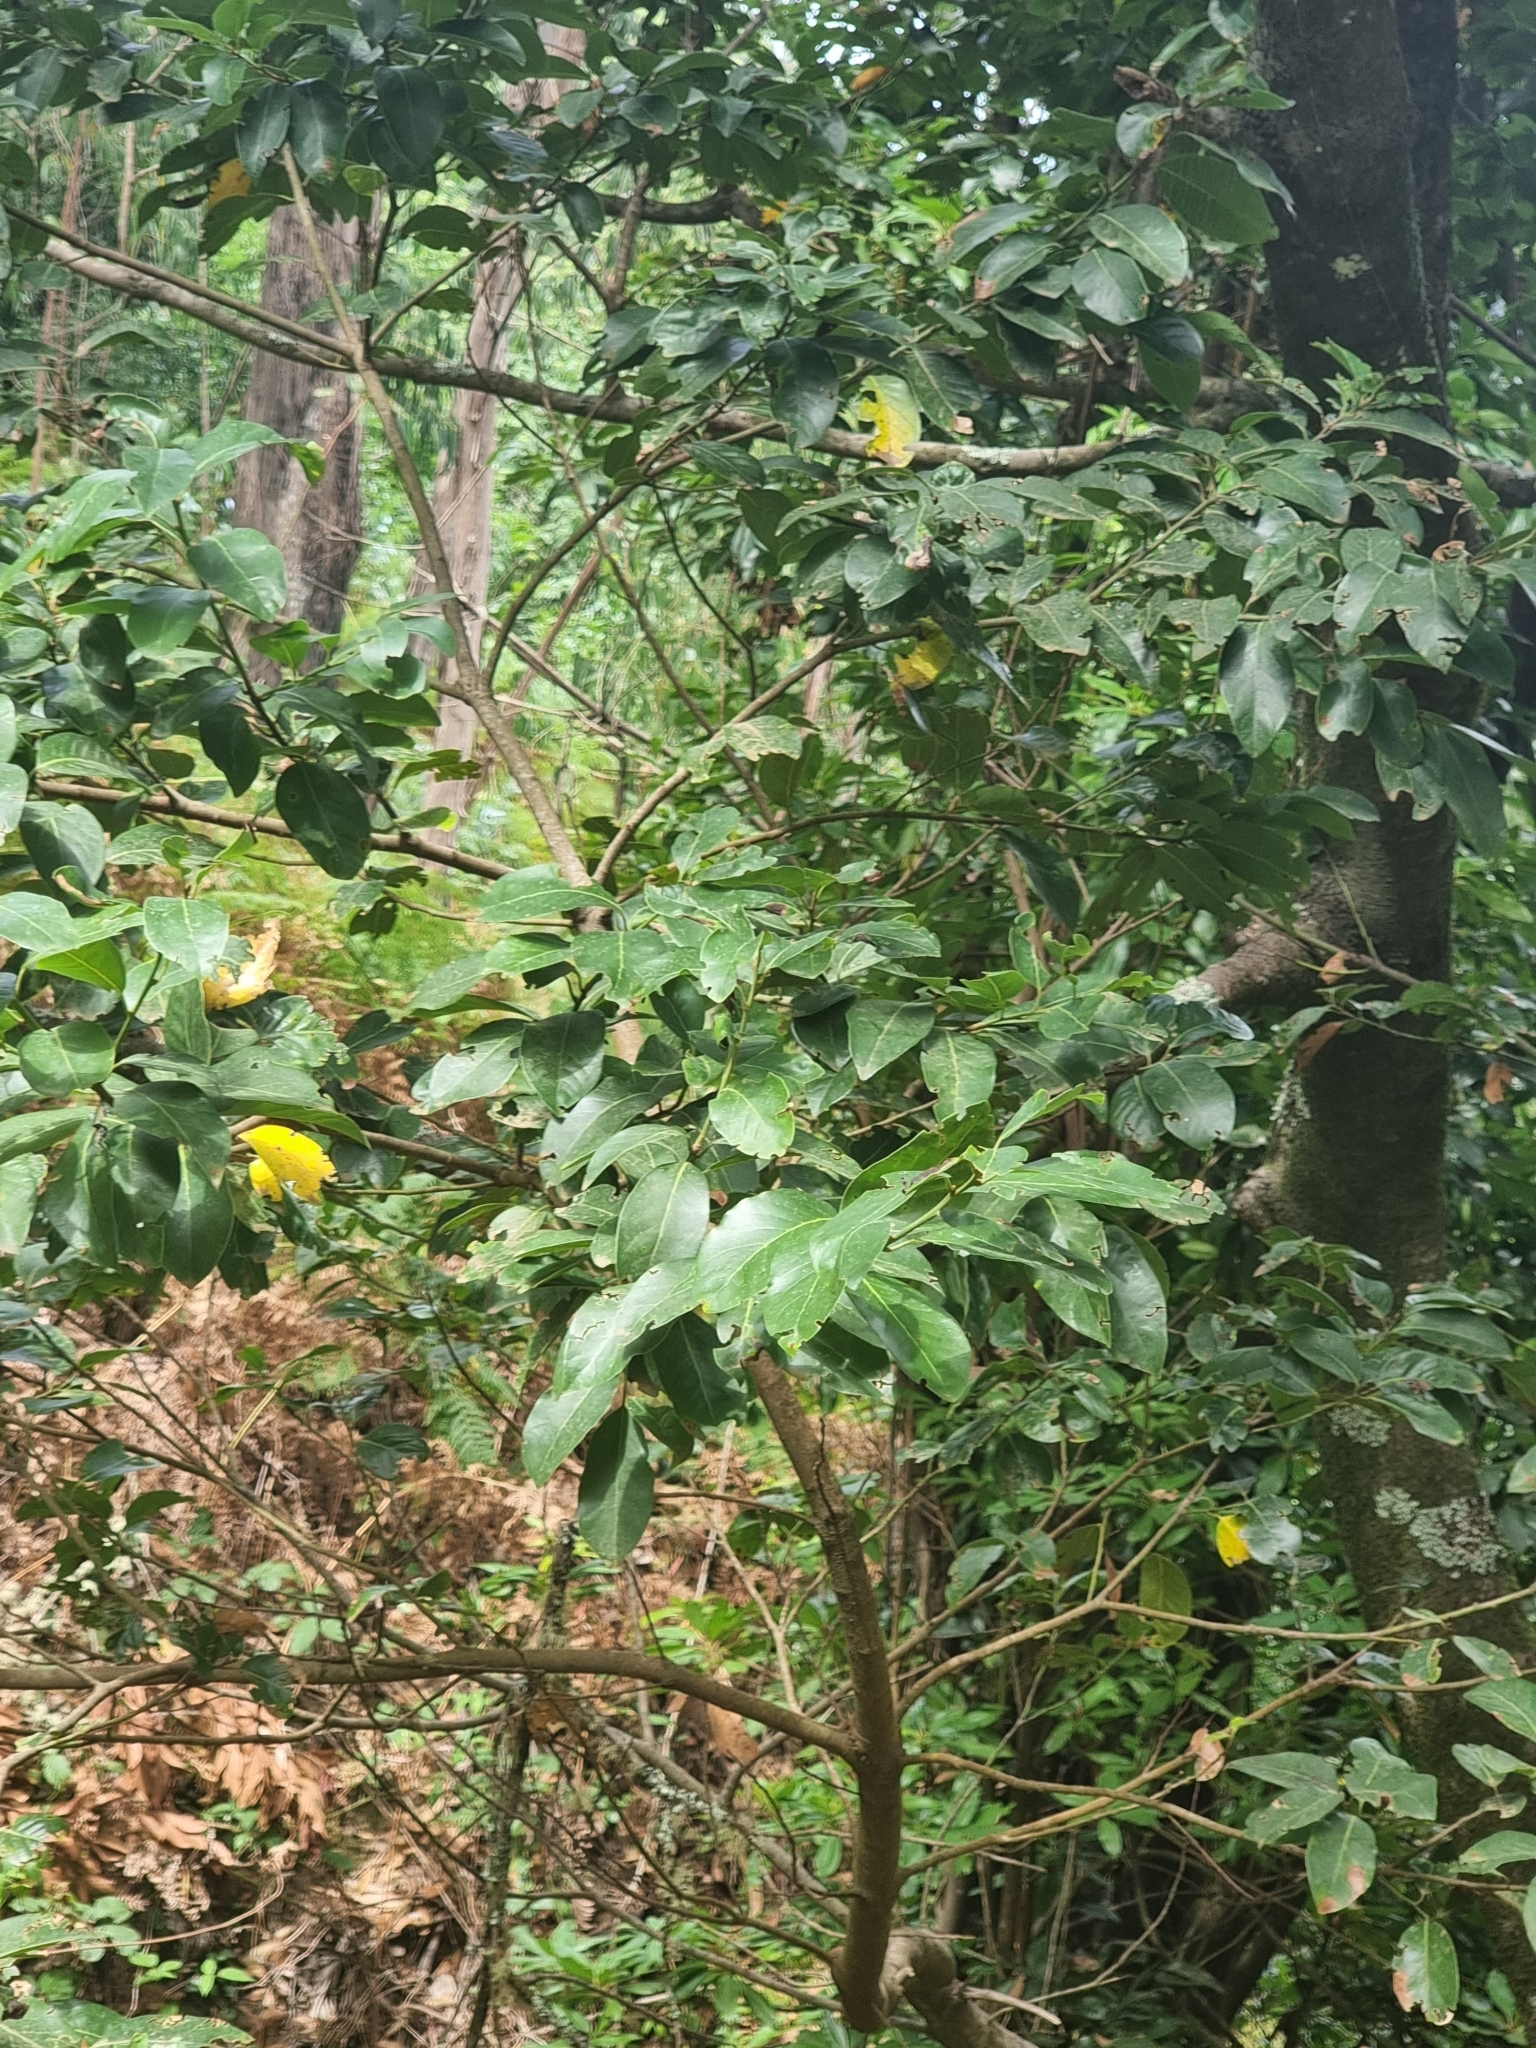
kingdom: Plantae
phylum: Tracheophyta
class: Magnoliopsida
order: Laurales
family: Lauraceae
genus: Laurus
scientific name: Laurus novocanariensis
